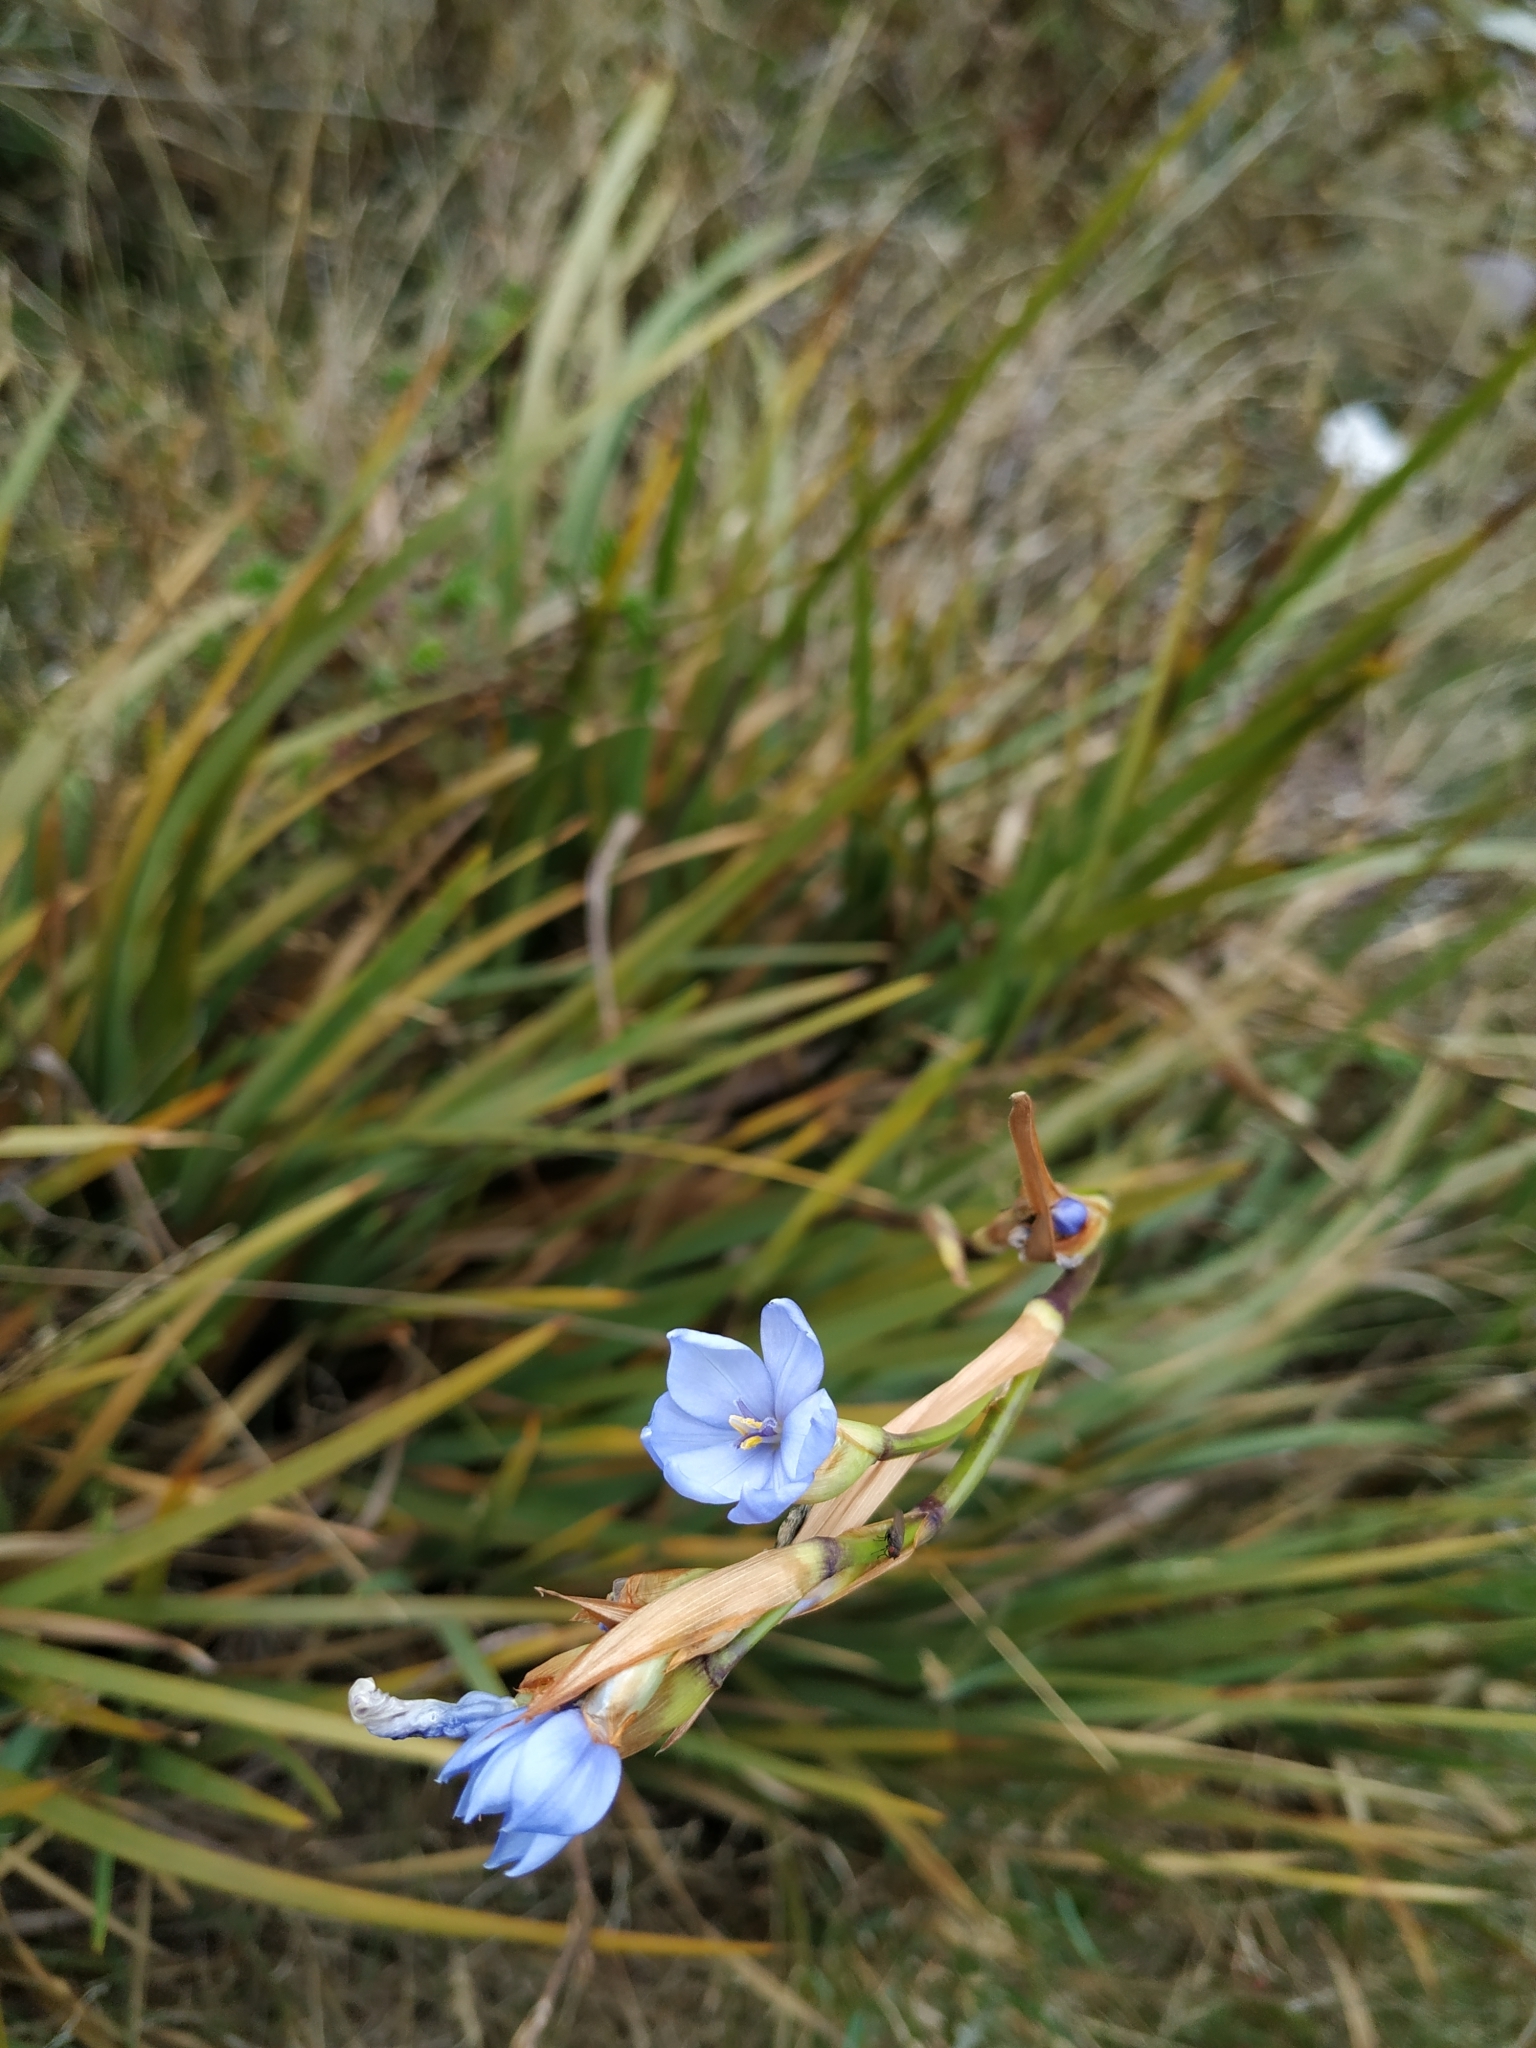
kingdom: Plantae
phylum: Tracheophyta
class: Liliopsida
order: Asparagales
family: Iridaceae
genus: Orthrosanthus
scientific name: Orthrosanthus chimboracensis
